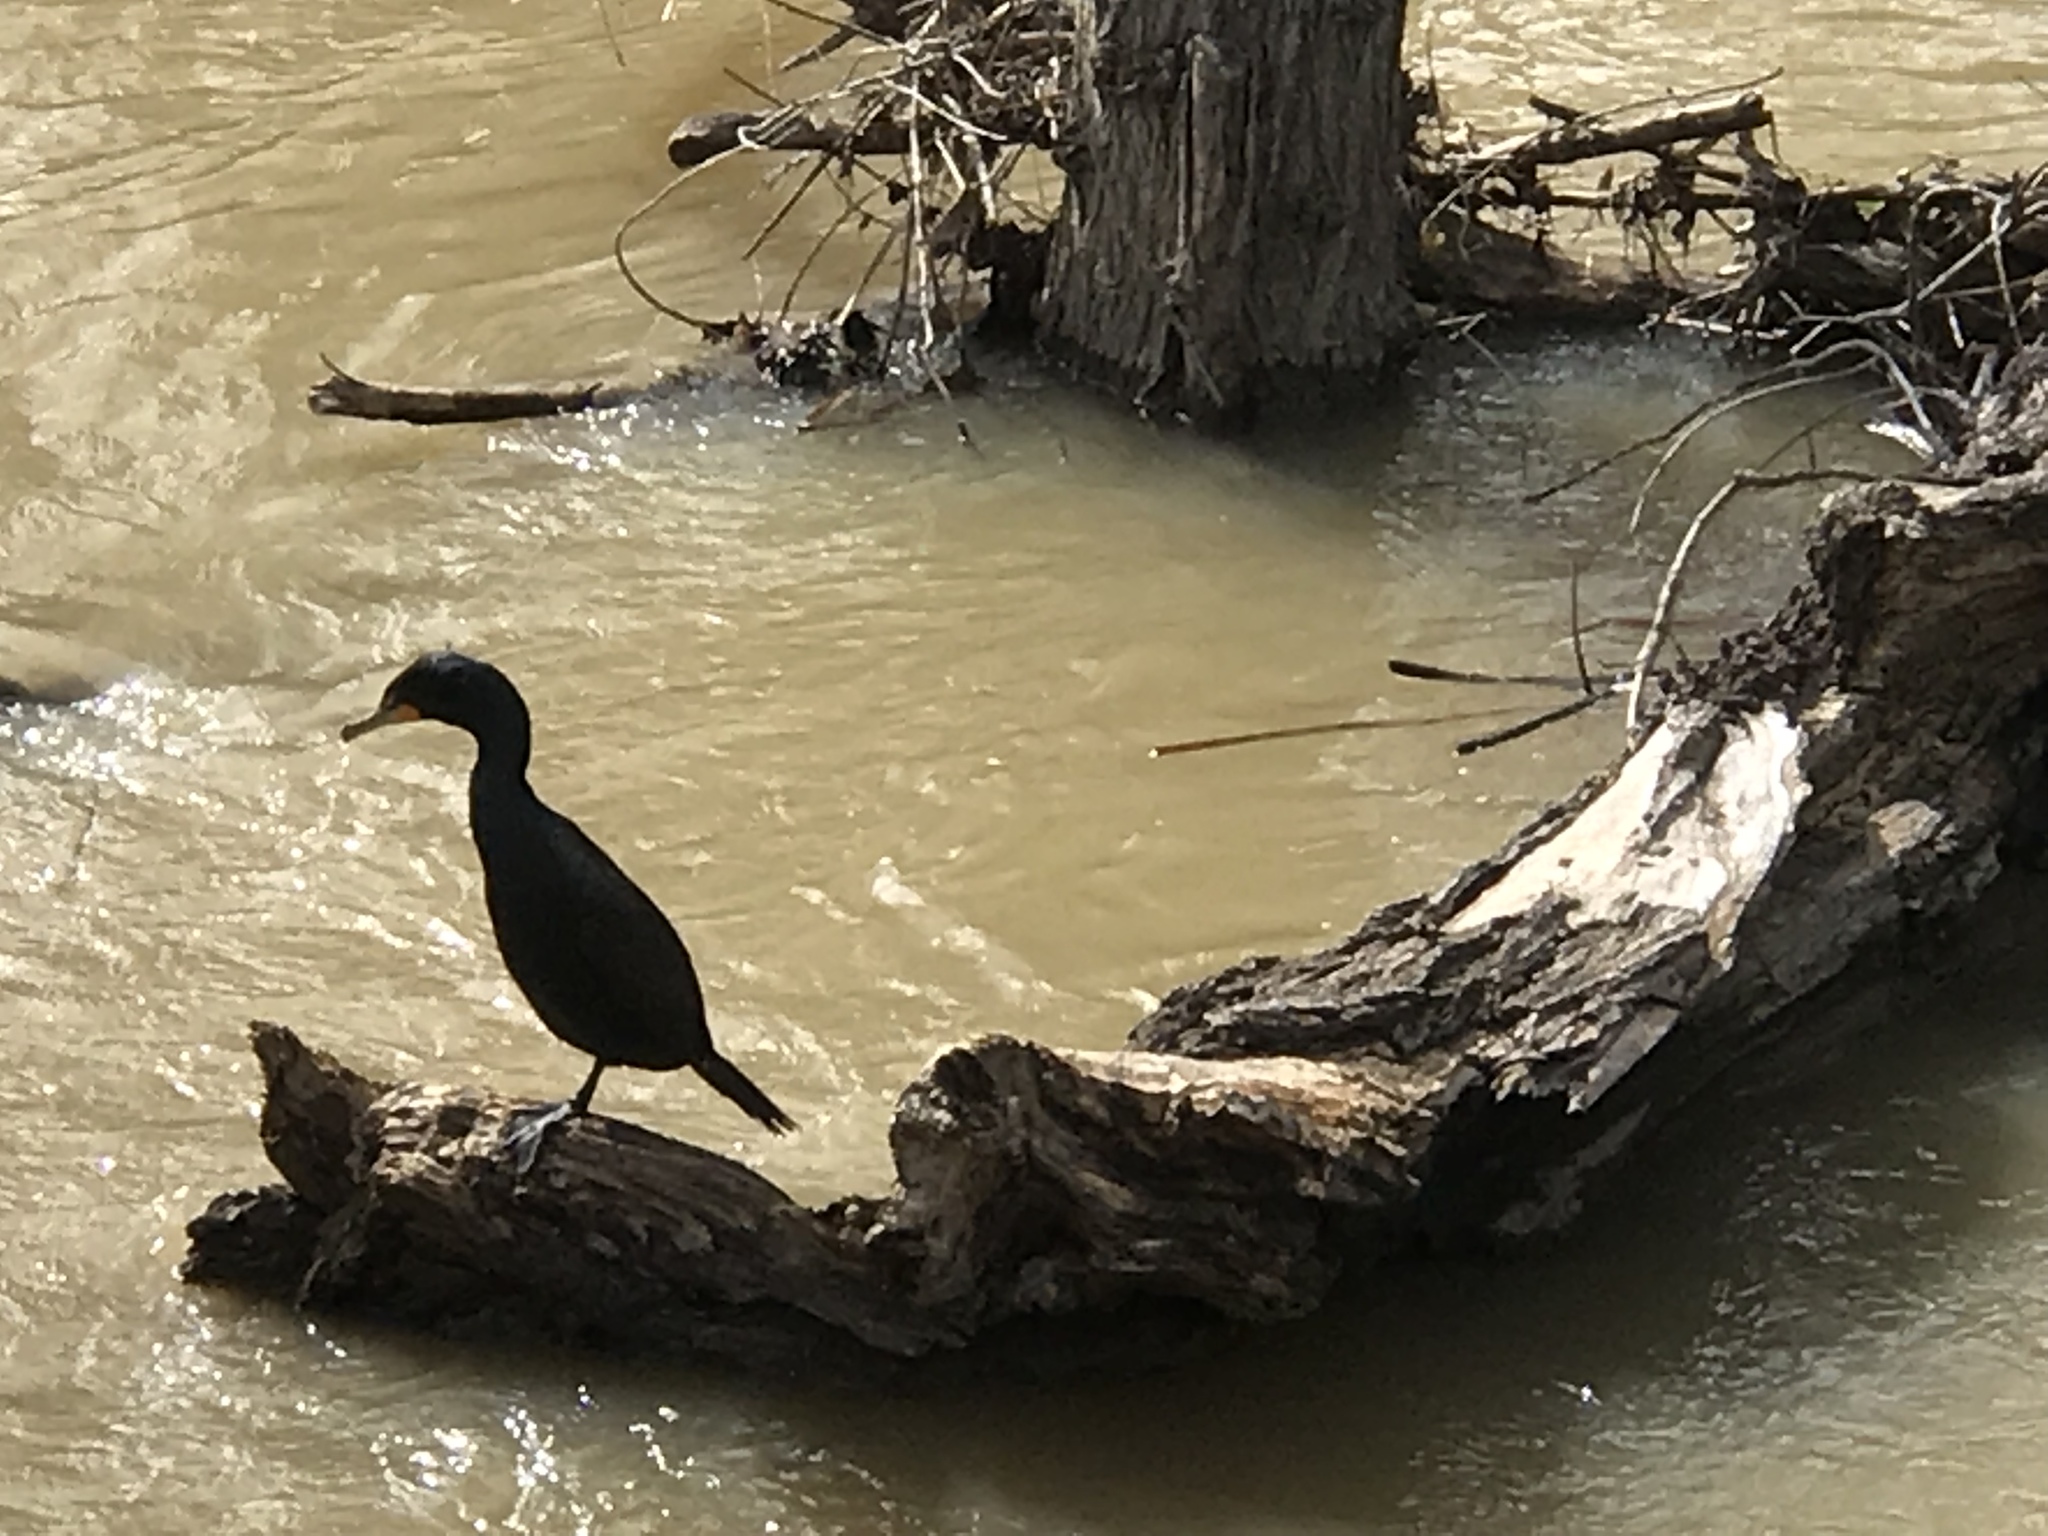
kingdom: Animalia
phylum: Chordata
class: Aves
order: Suliformes
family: Phalacrocoracidae
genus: Phalacrocorax
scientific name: Phalacrocorax auritus
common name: Double-crested cormorant
